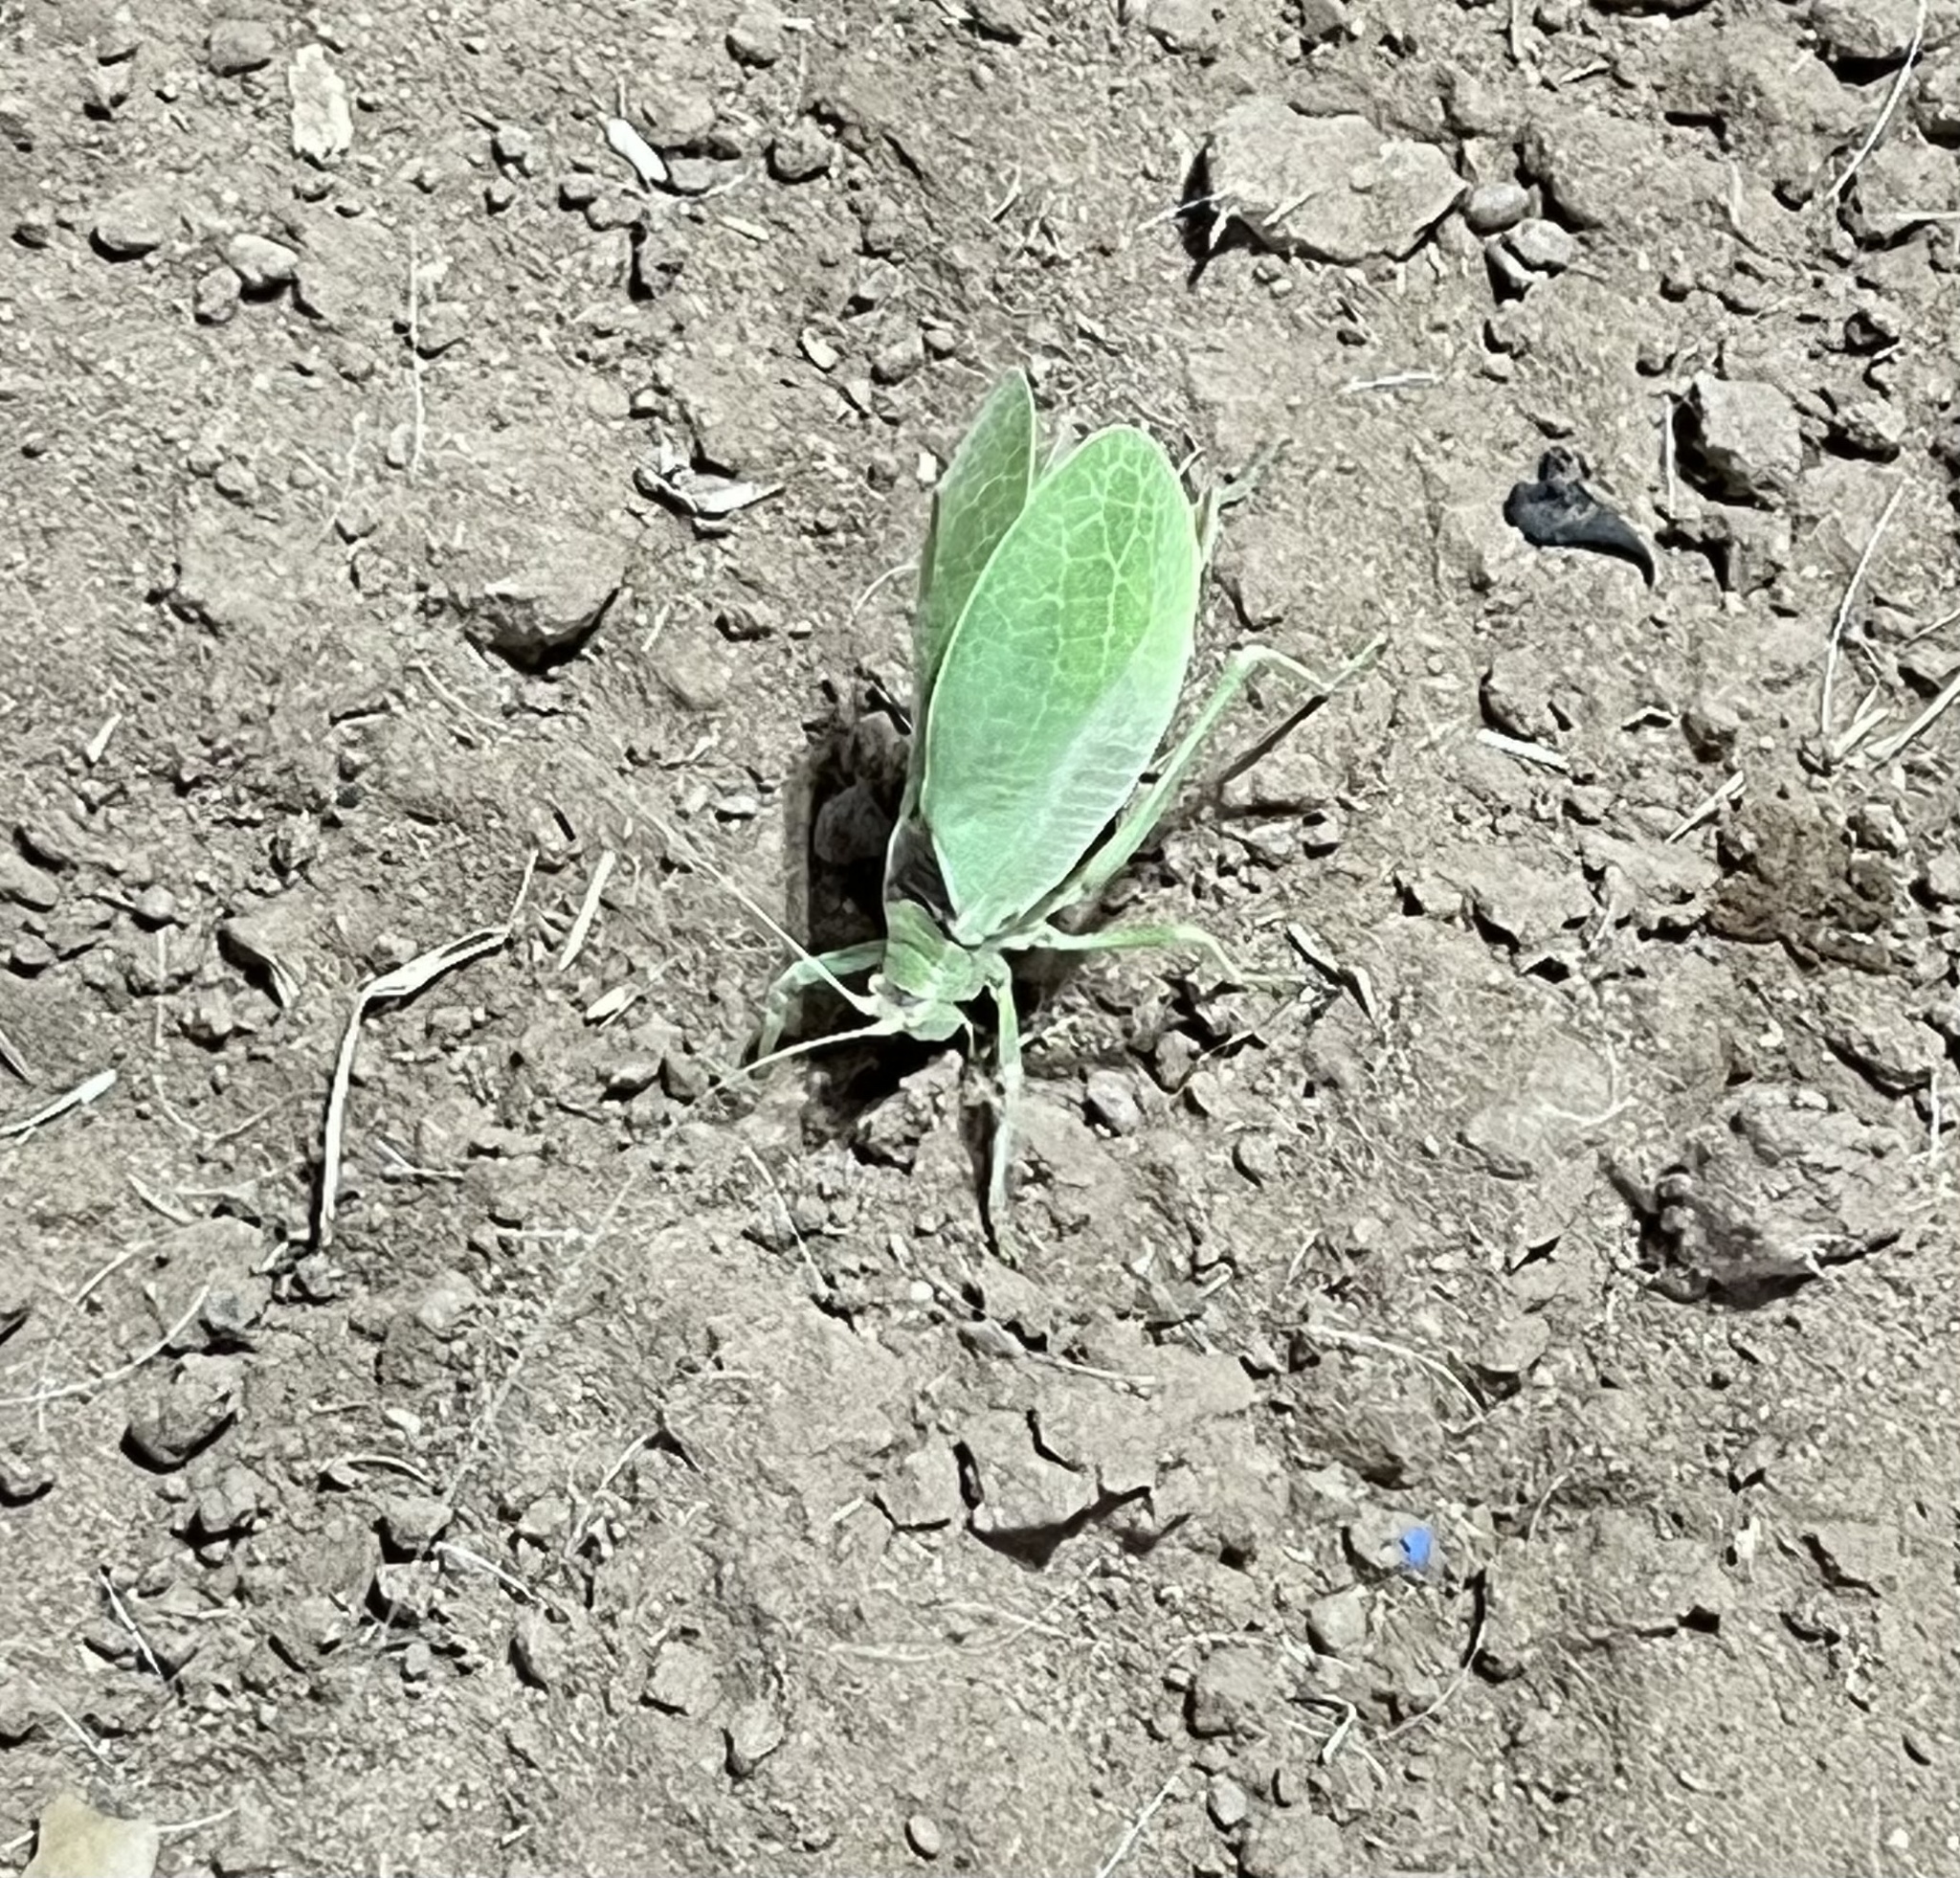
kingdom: Animalia
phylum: Arthropoda
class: Insecta
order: Orthoptera
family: Tettigoniidae
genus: Pterophylla
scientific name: Pterophylla camellifolia
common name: Common true katydid
